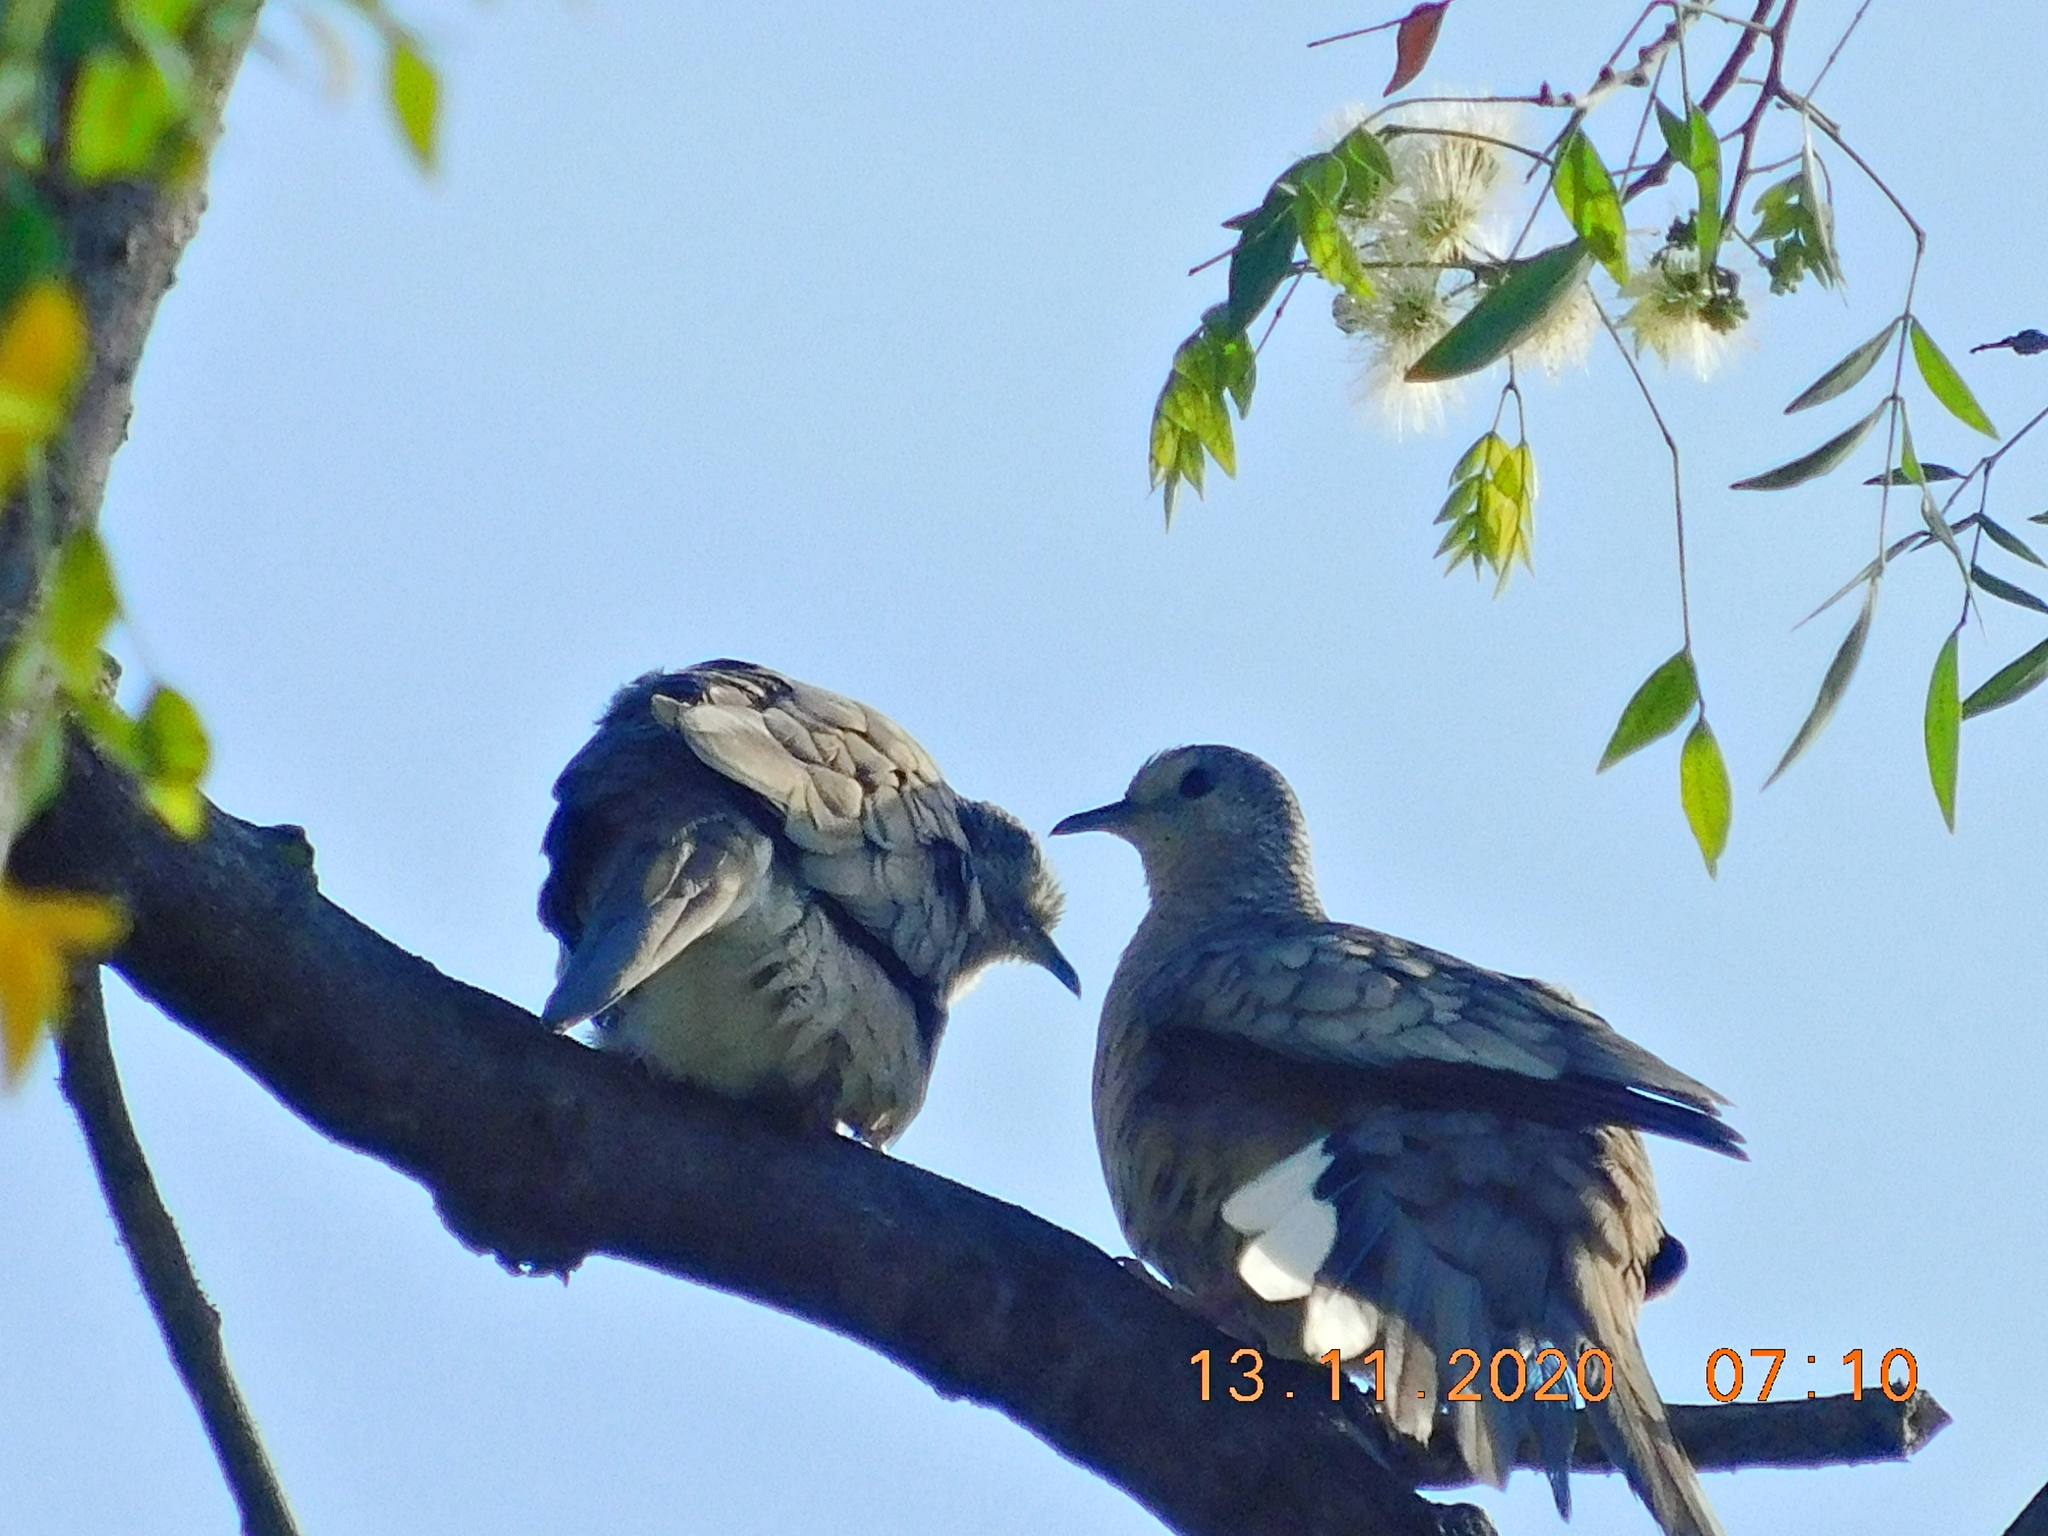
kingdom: Animalia
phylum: Chordata
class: Aves
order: Columbiformes
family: Columbidae
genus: Columbina
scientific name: Columbina inca
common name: Inca dove
